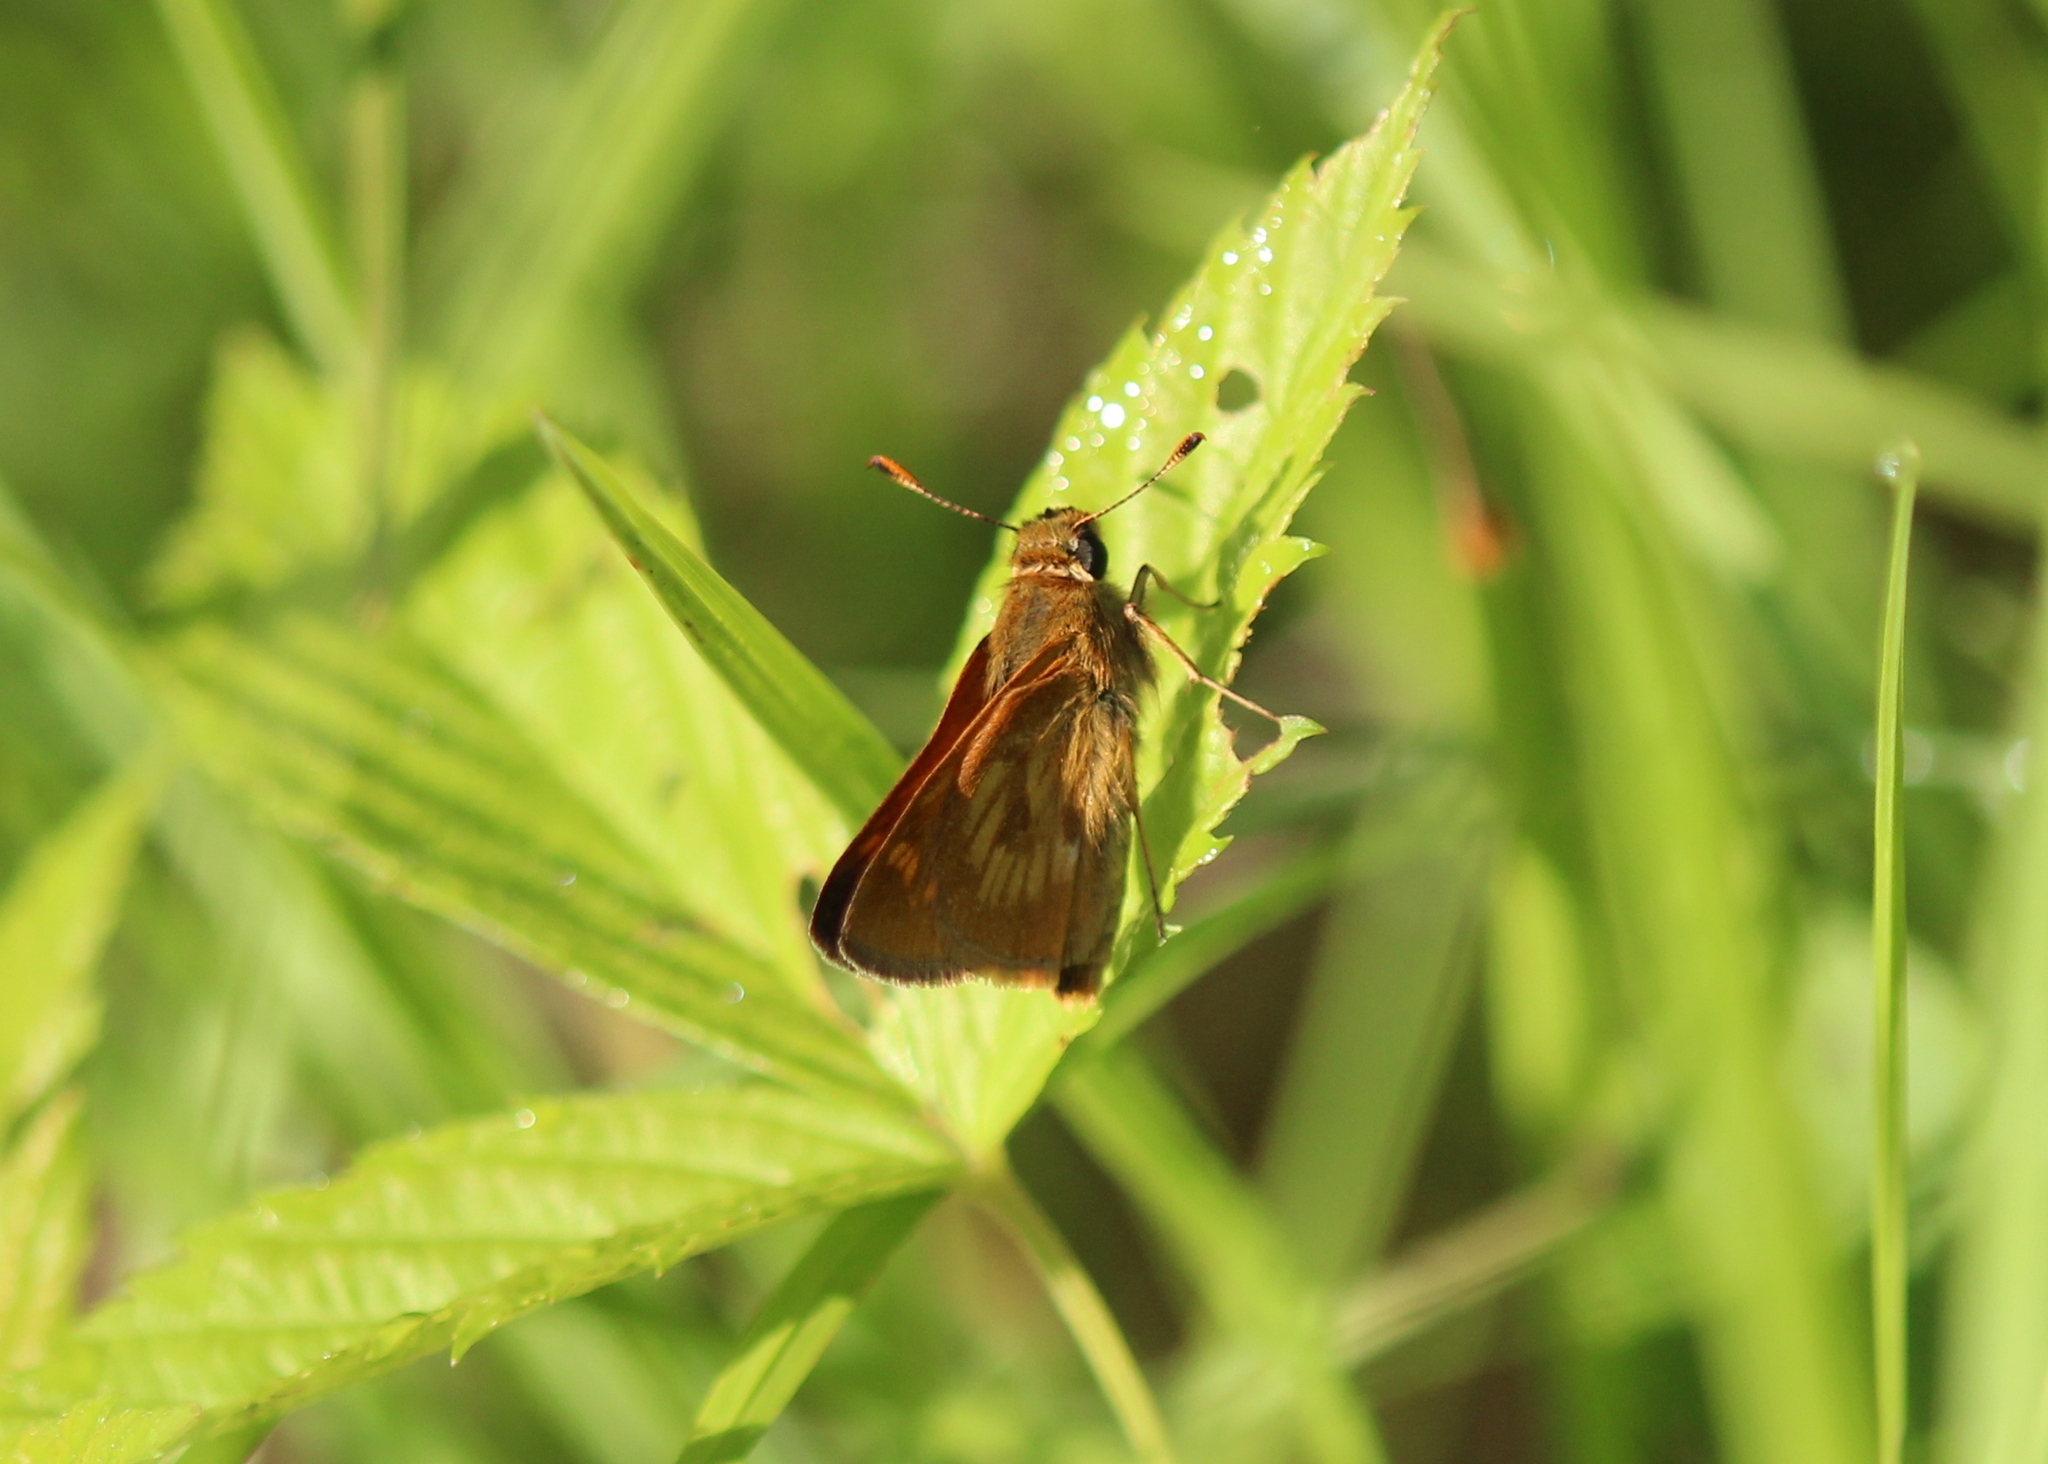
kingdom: Animalia
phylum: Arthropoda
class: Insecta
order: Lepidoptera
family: Hesperiidae
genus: Polites
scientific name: Polites mystic
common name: Long dash
